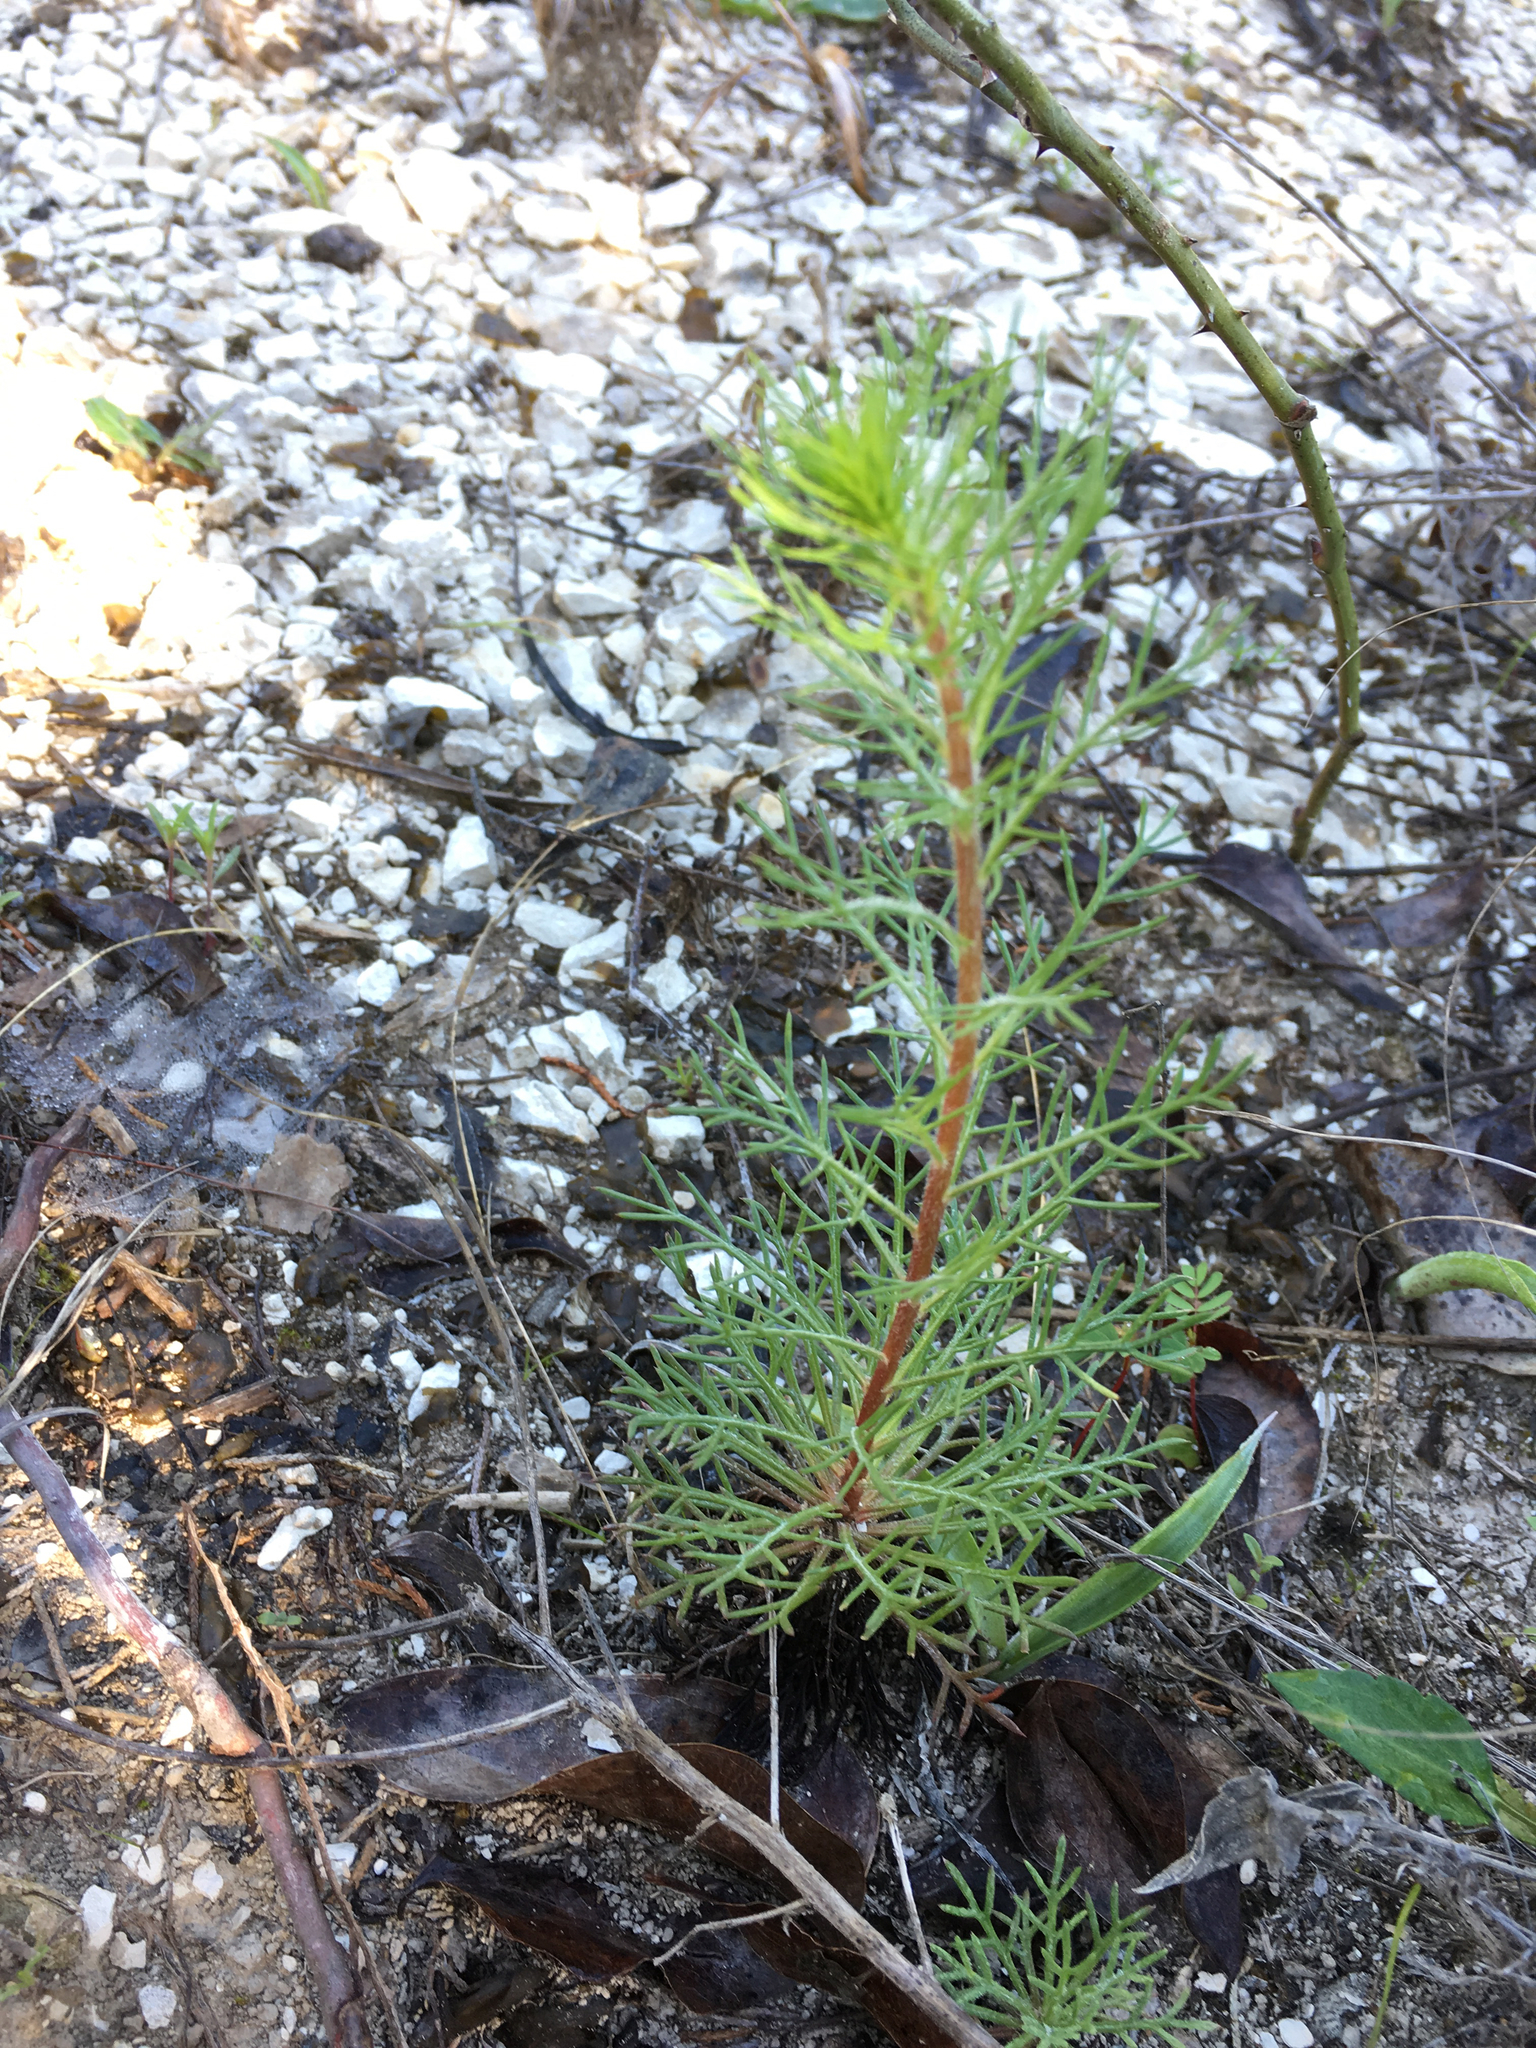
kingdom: Plantae
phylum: Tracheophyta
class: Magnoliopsida
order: Ericales
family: Polemoniaceae
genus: Ipomopsis
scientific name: Ipomopsis rubra
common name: Skyrocket
